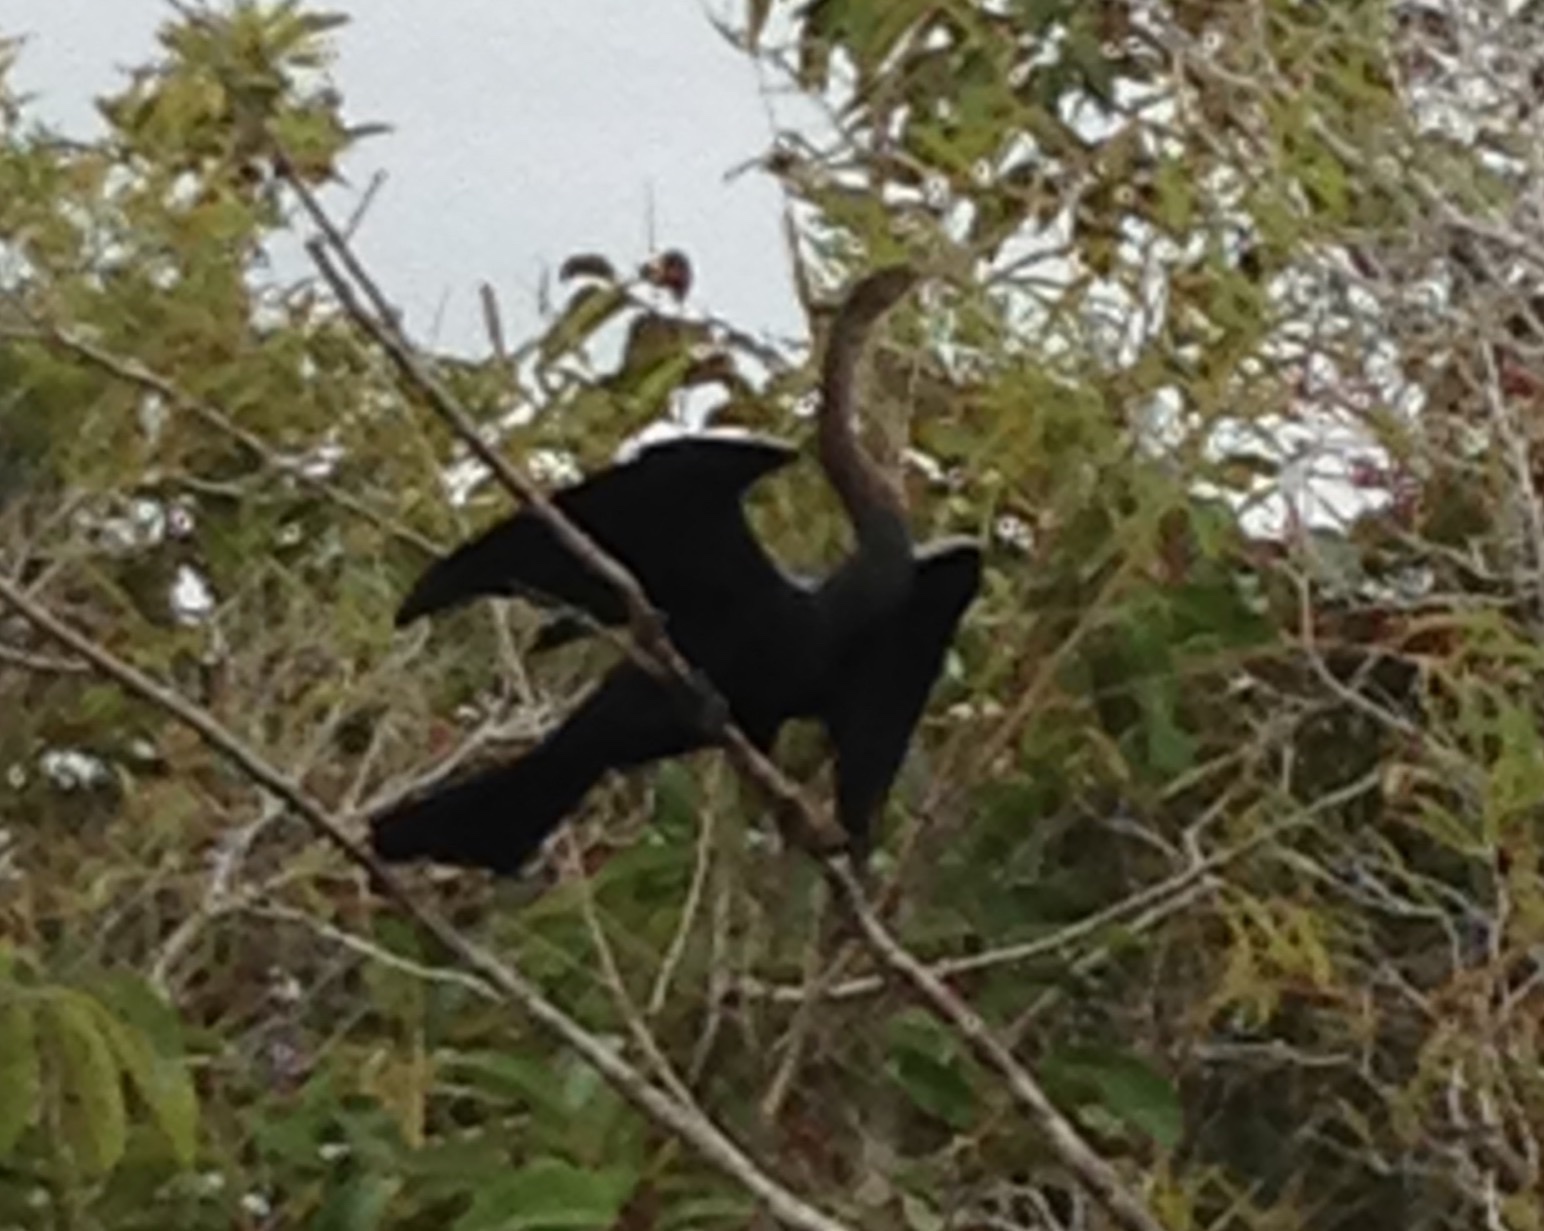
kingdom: Animalia
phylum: Chordata
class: Aves
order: Suliformes
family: Anhingidae
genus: Anhinga
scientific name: Anhinga anhinga
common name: Anhinga
